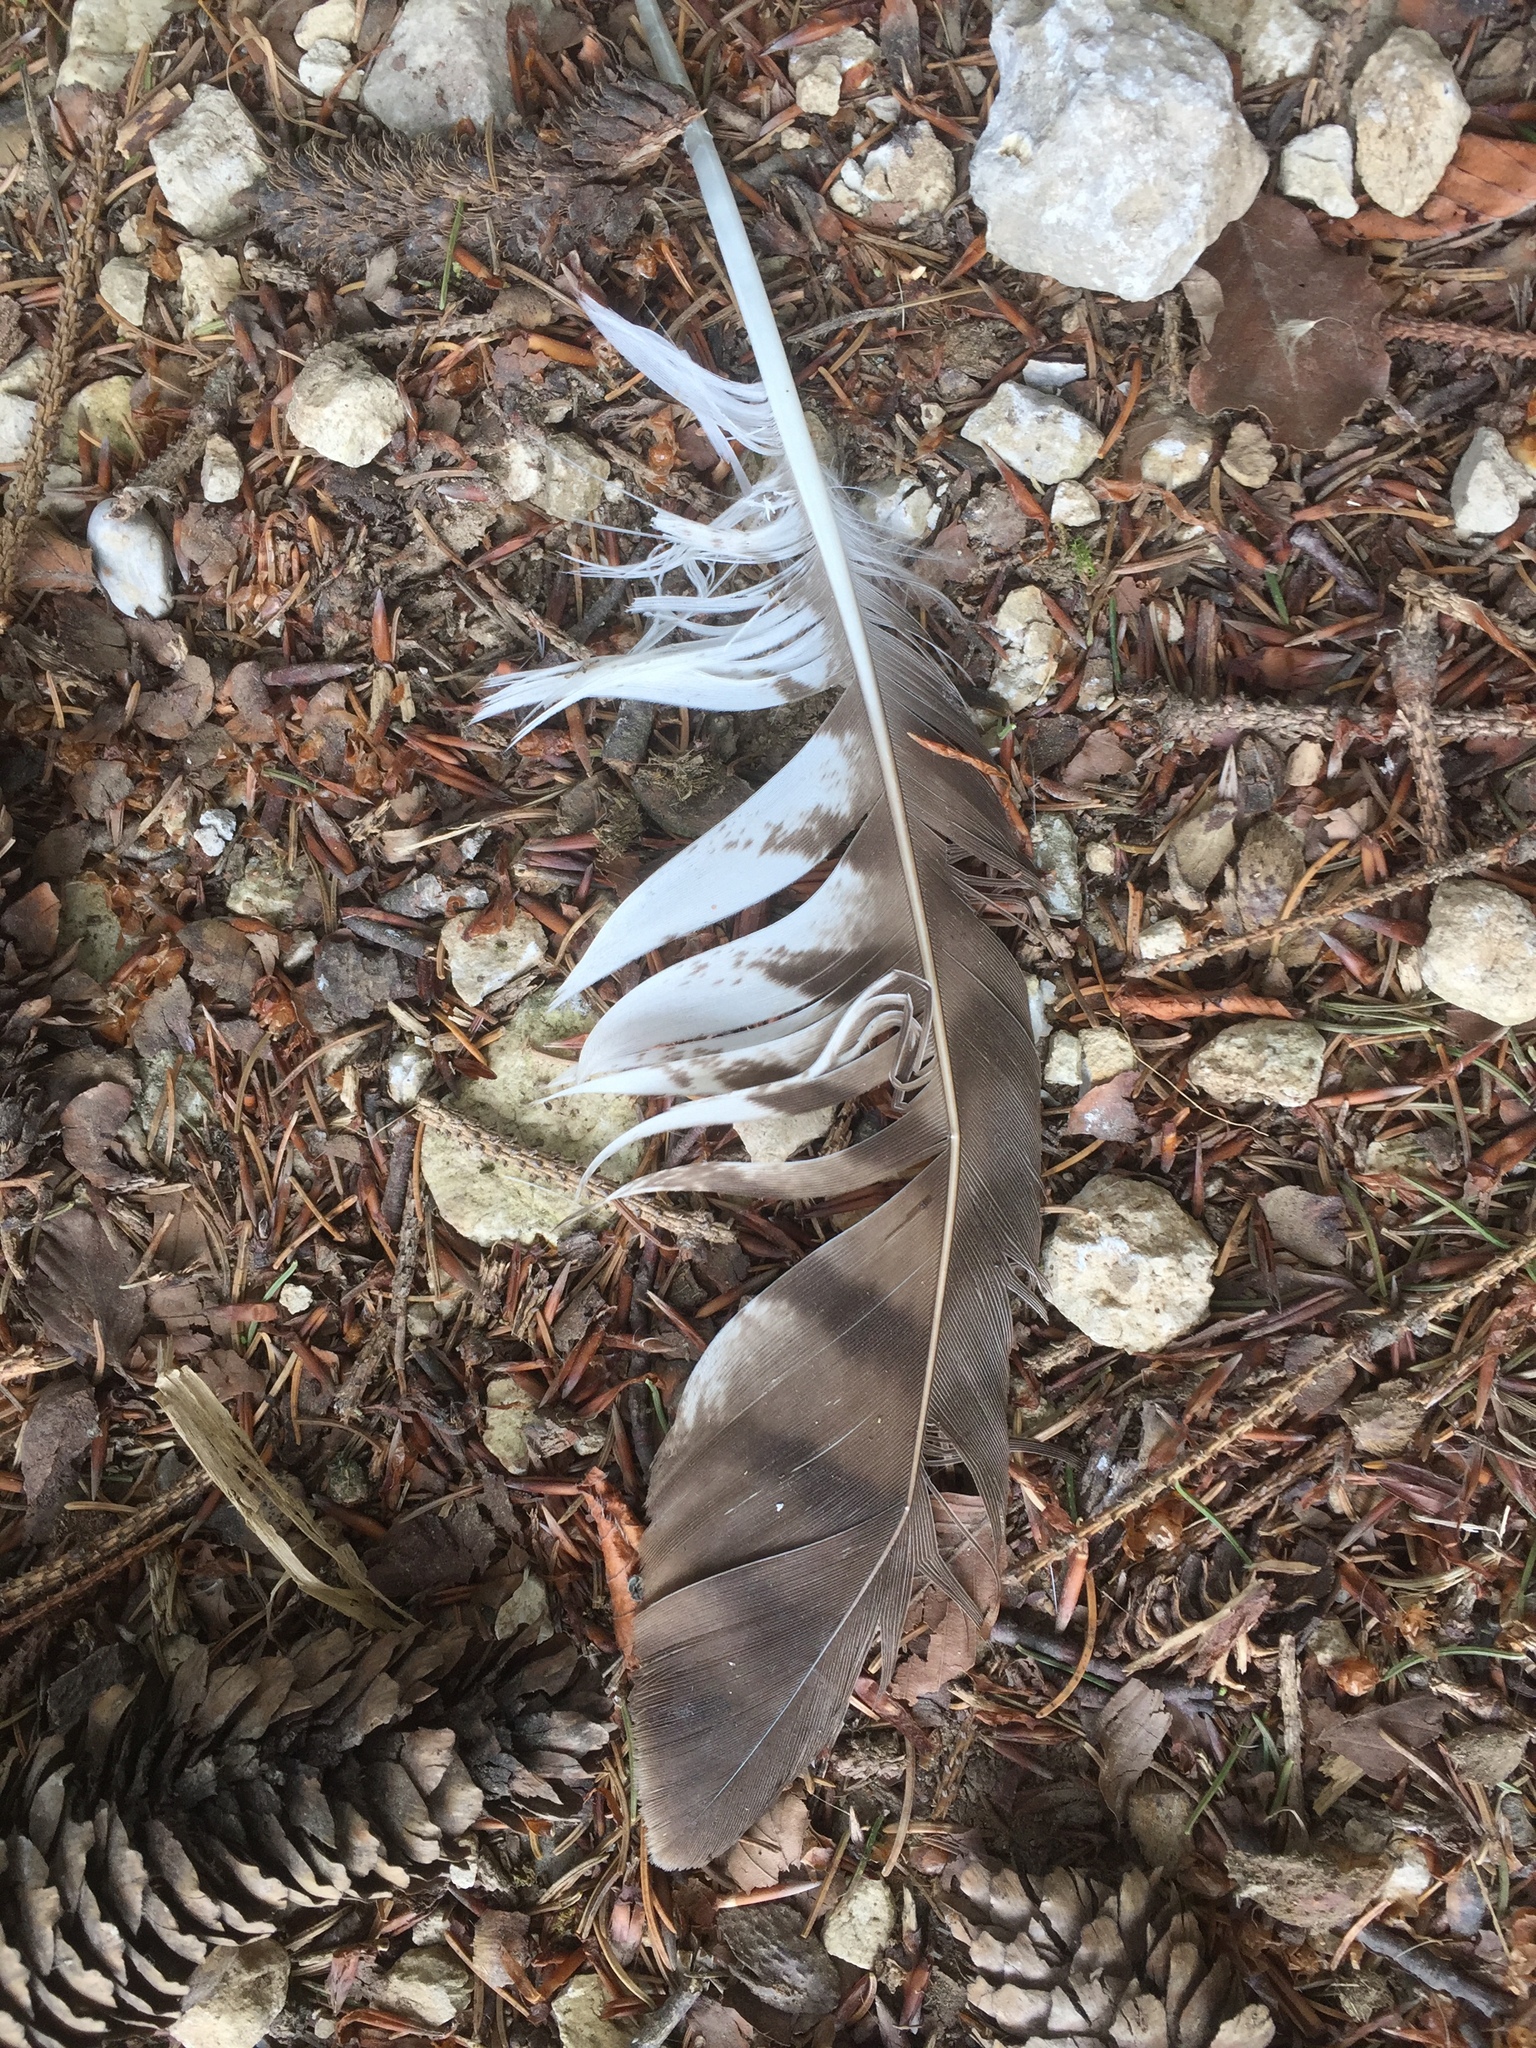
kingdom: Animalia
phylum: Chordata
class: Aves
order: Accipitriformes
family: Accipitridae
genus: Buteo
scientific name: Buteo buteo
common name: Common buzzard
